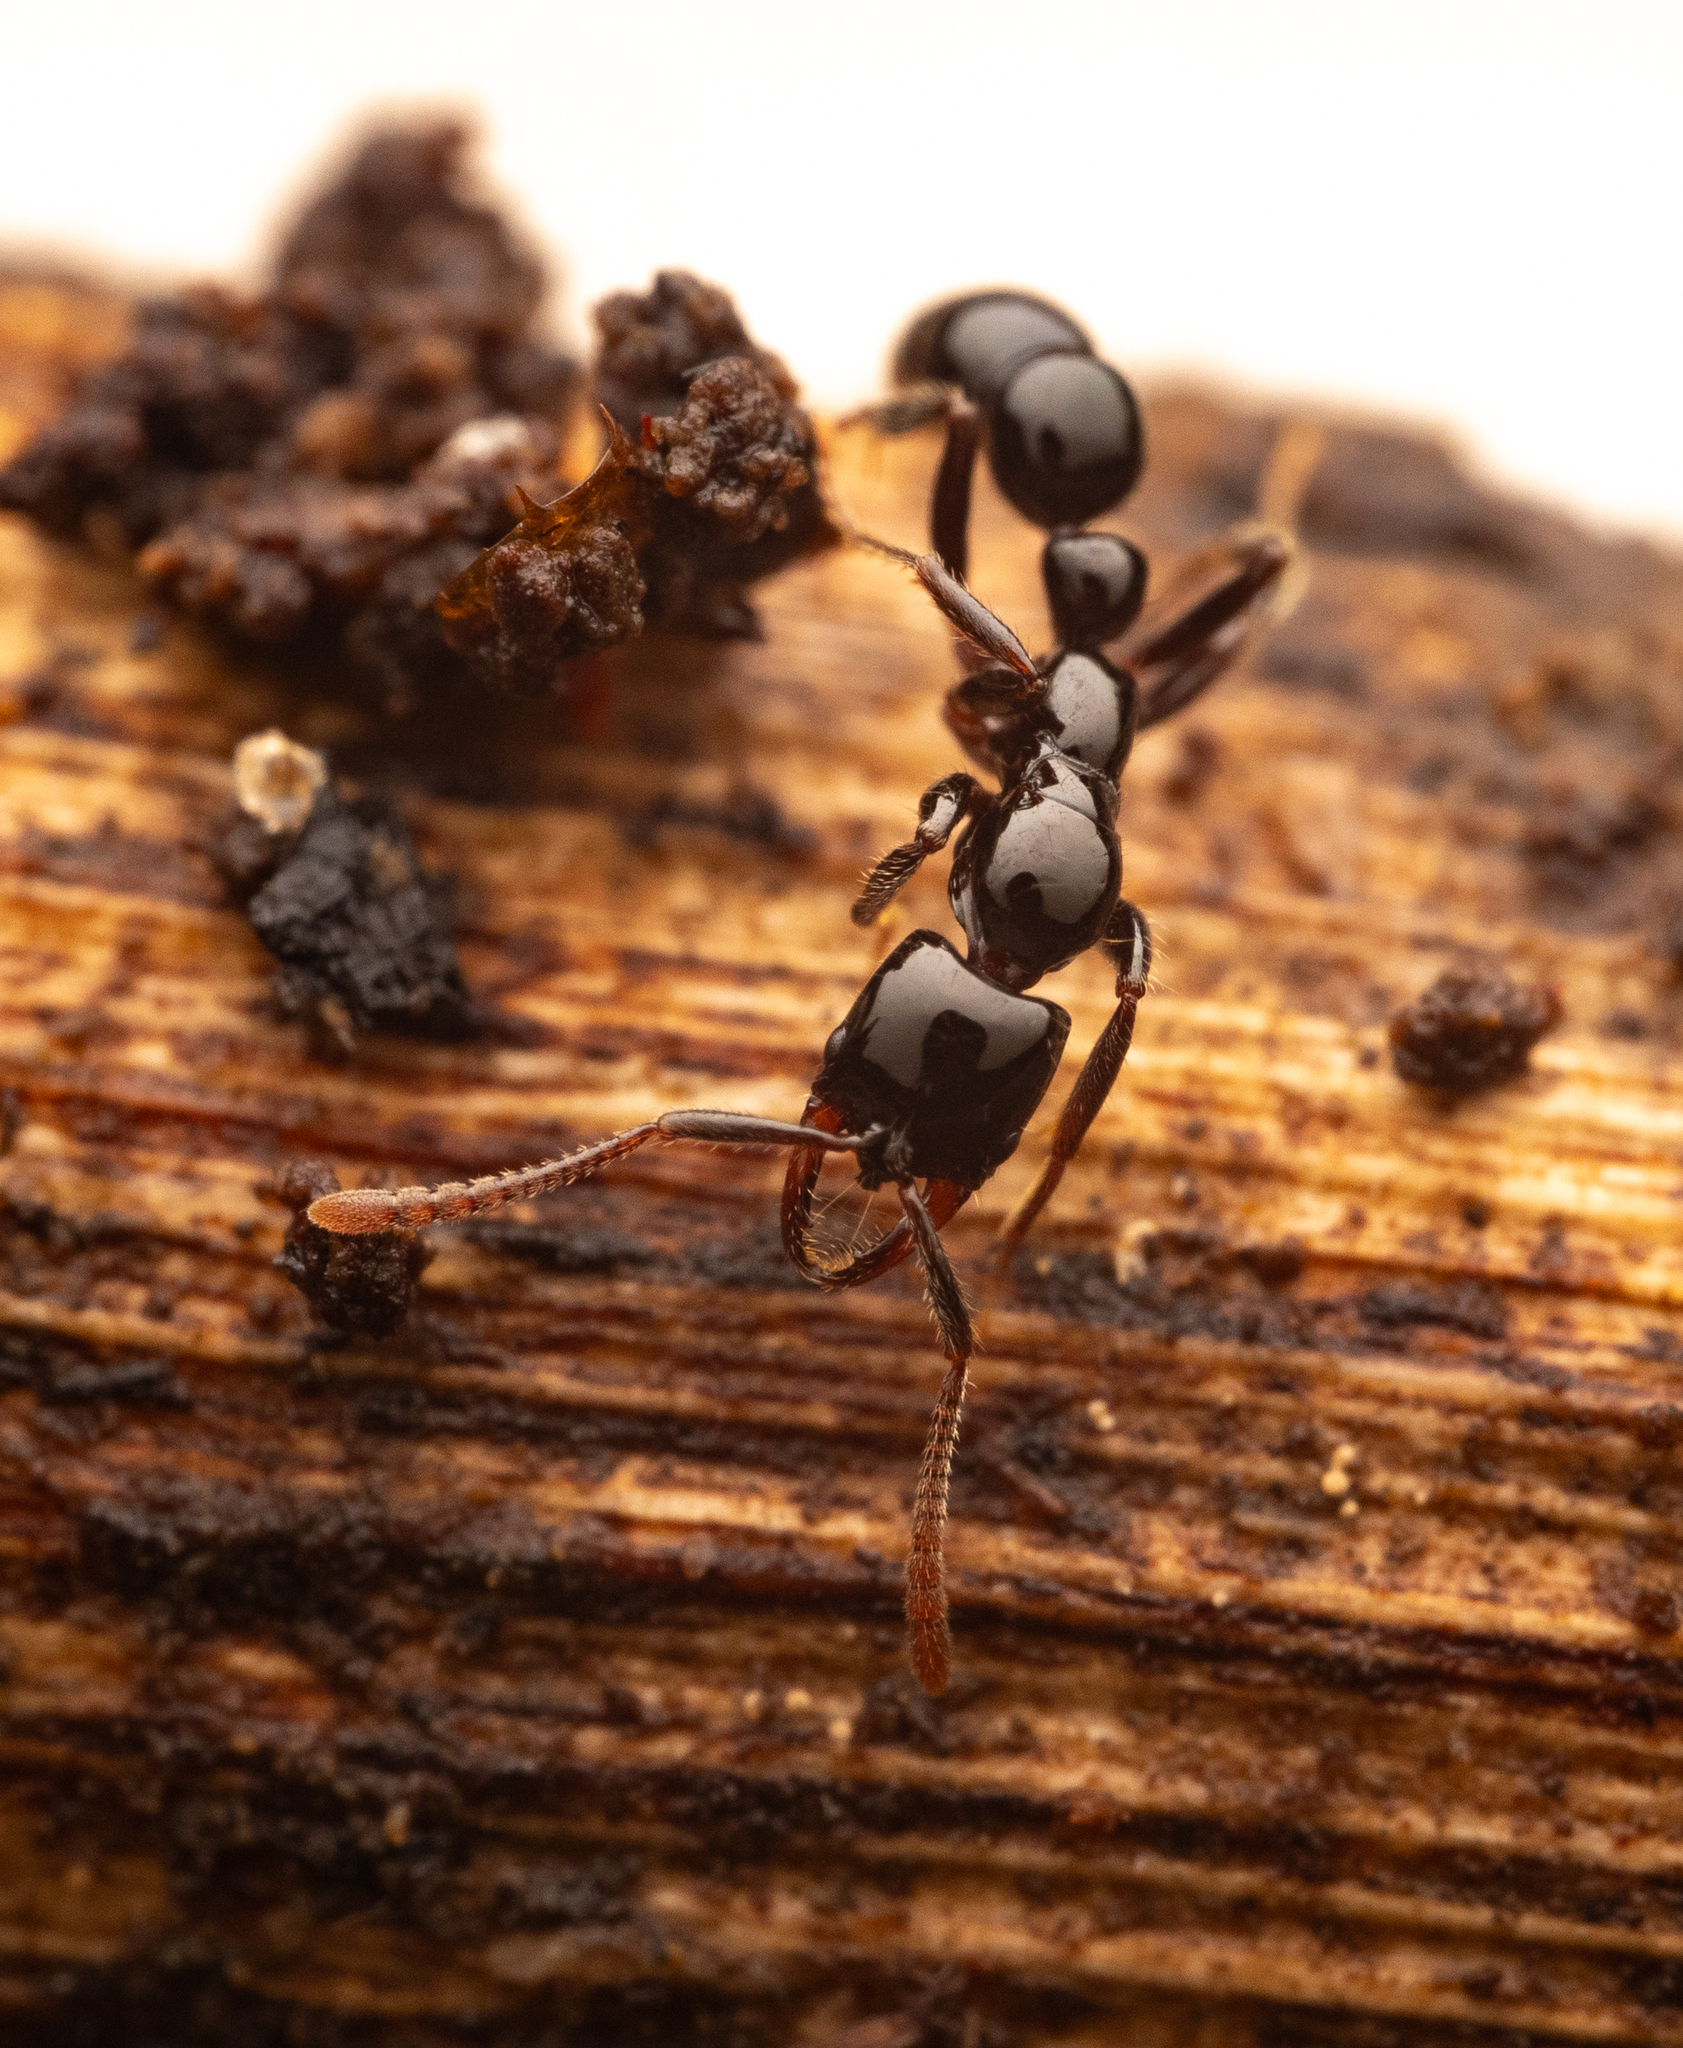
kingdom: Animalia
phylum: Arthropoda
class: Insecta
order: Hymenoptera
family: Formicidae
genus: Myopias
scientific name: Myopias latinoda
